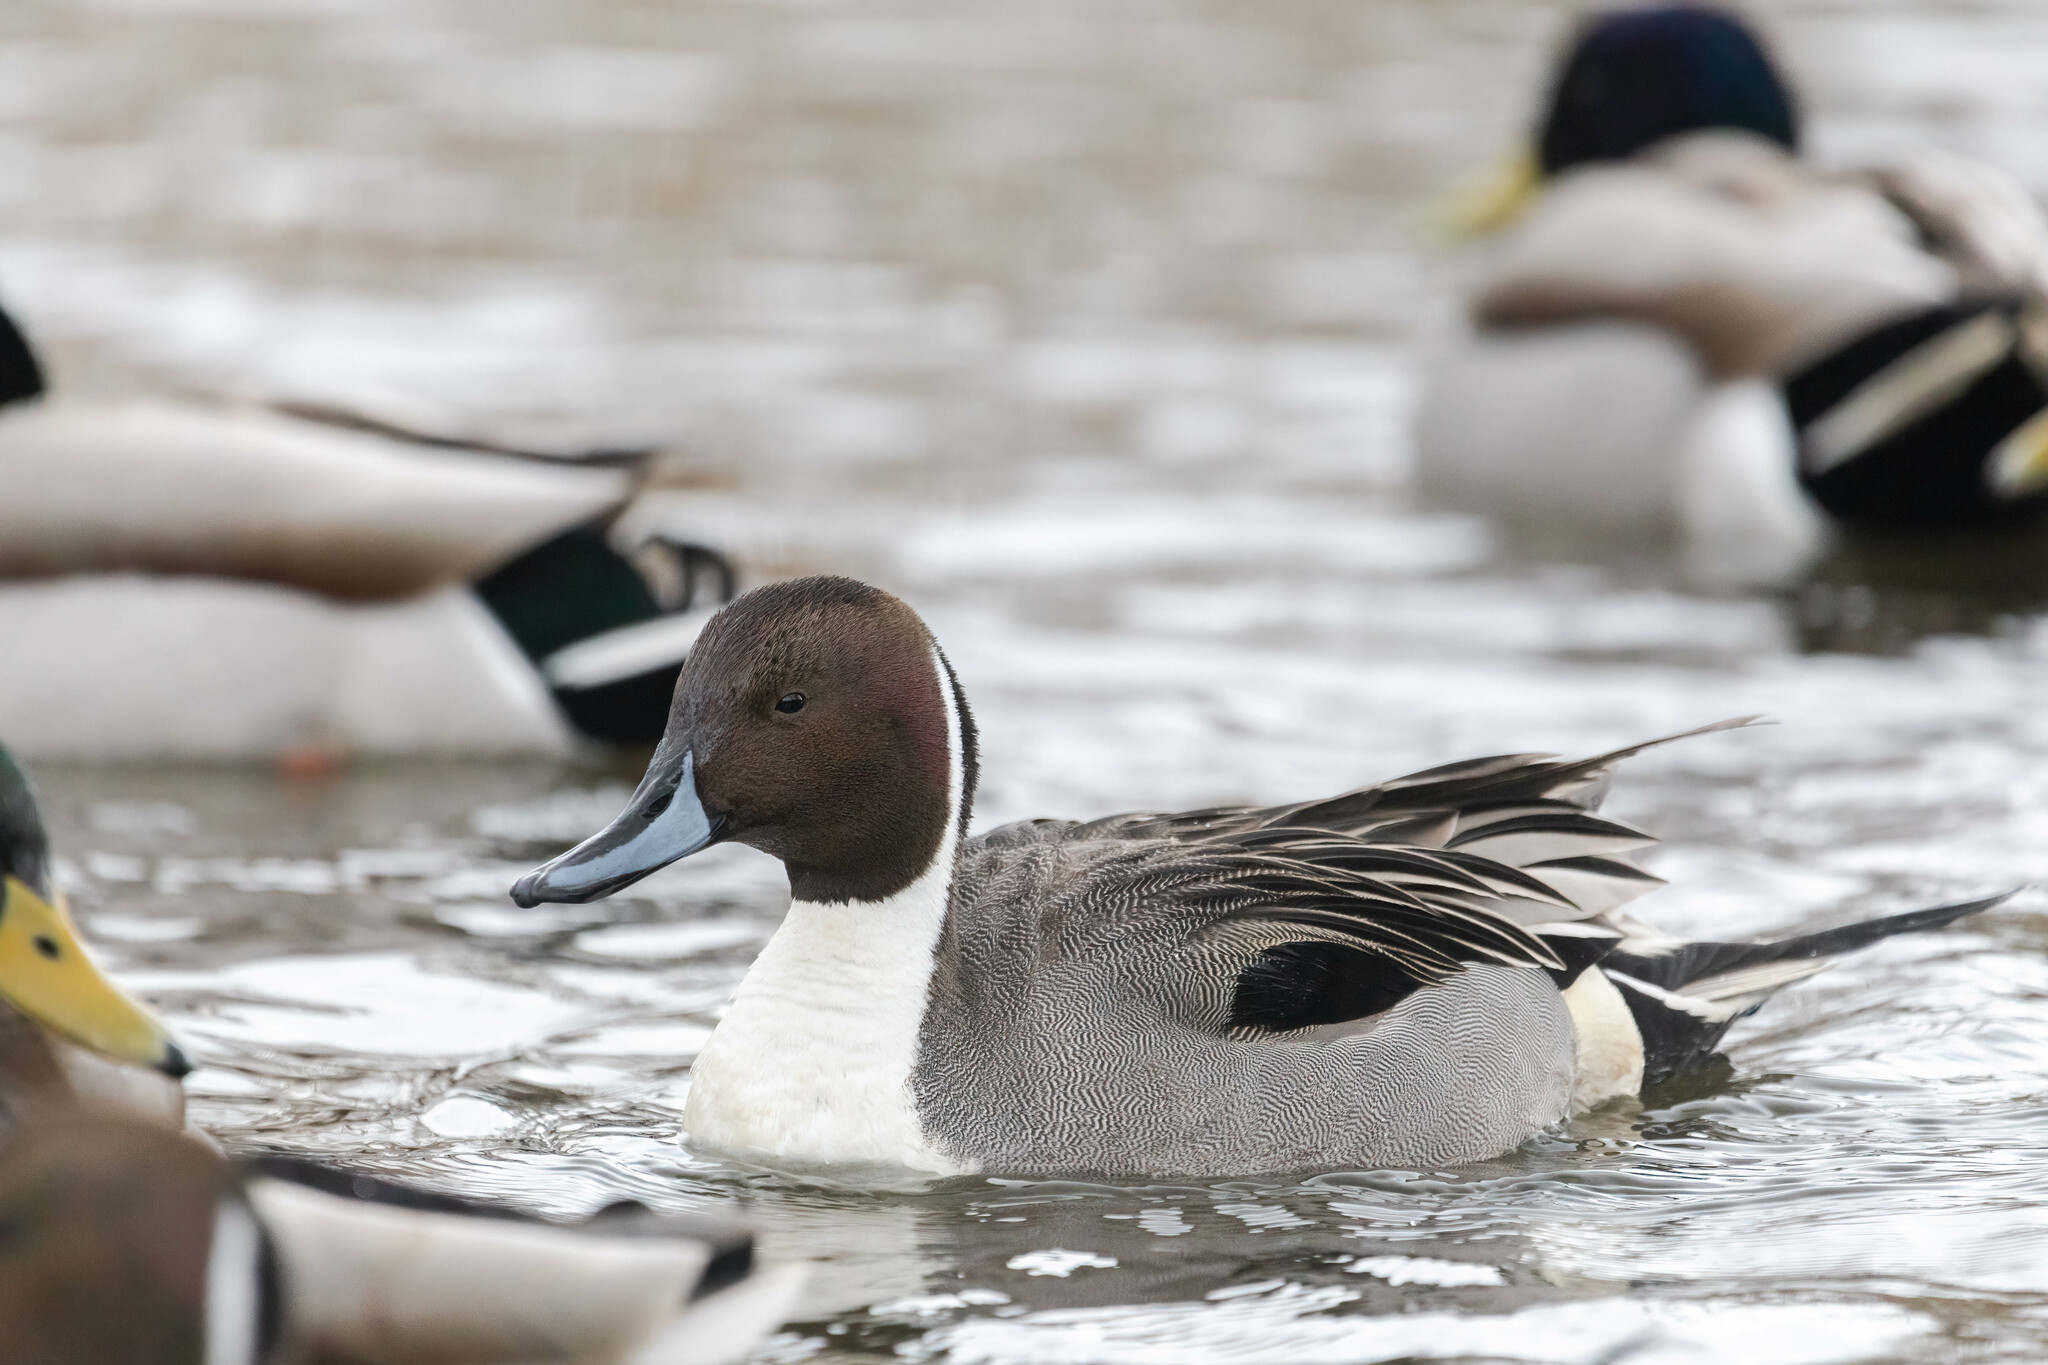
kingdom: Animalia
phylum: Chordata
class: Aves
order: Anseriformes
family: Anatidae
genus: Anas
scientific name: Anas acuta
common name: Northern pintail
